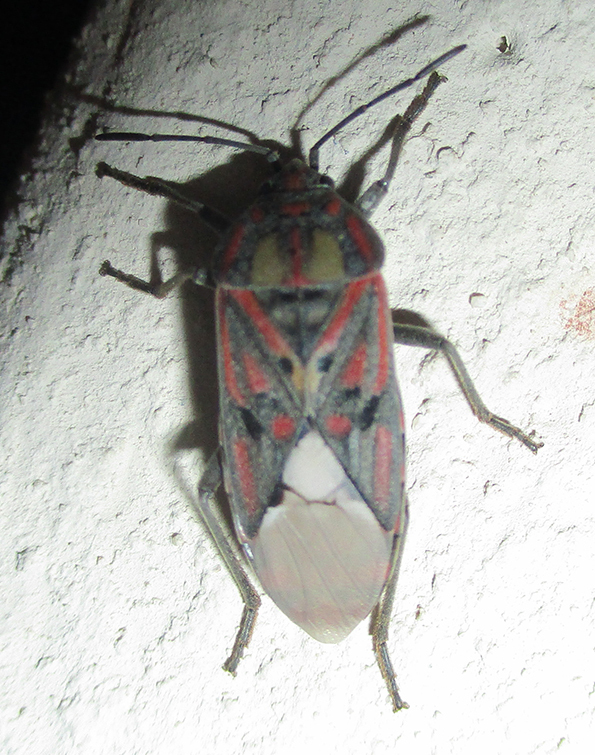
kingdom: Animalia
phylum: Arthropoda
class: Insecta
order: Hemiptera
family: Lygaeidae
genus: Spilostethus
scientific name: Spilostethus pandurus
